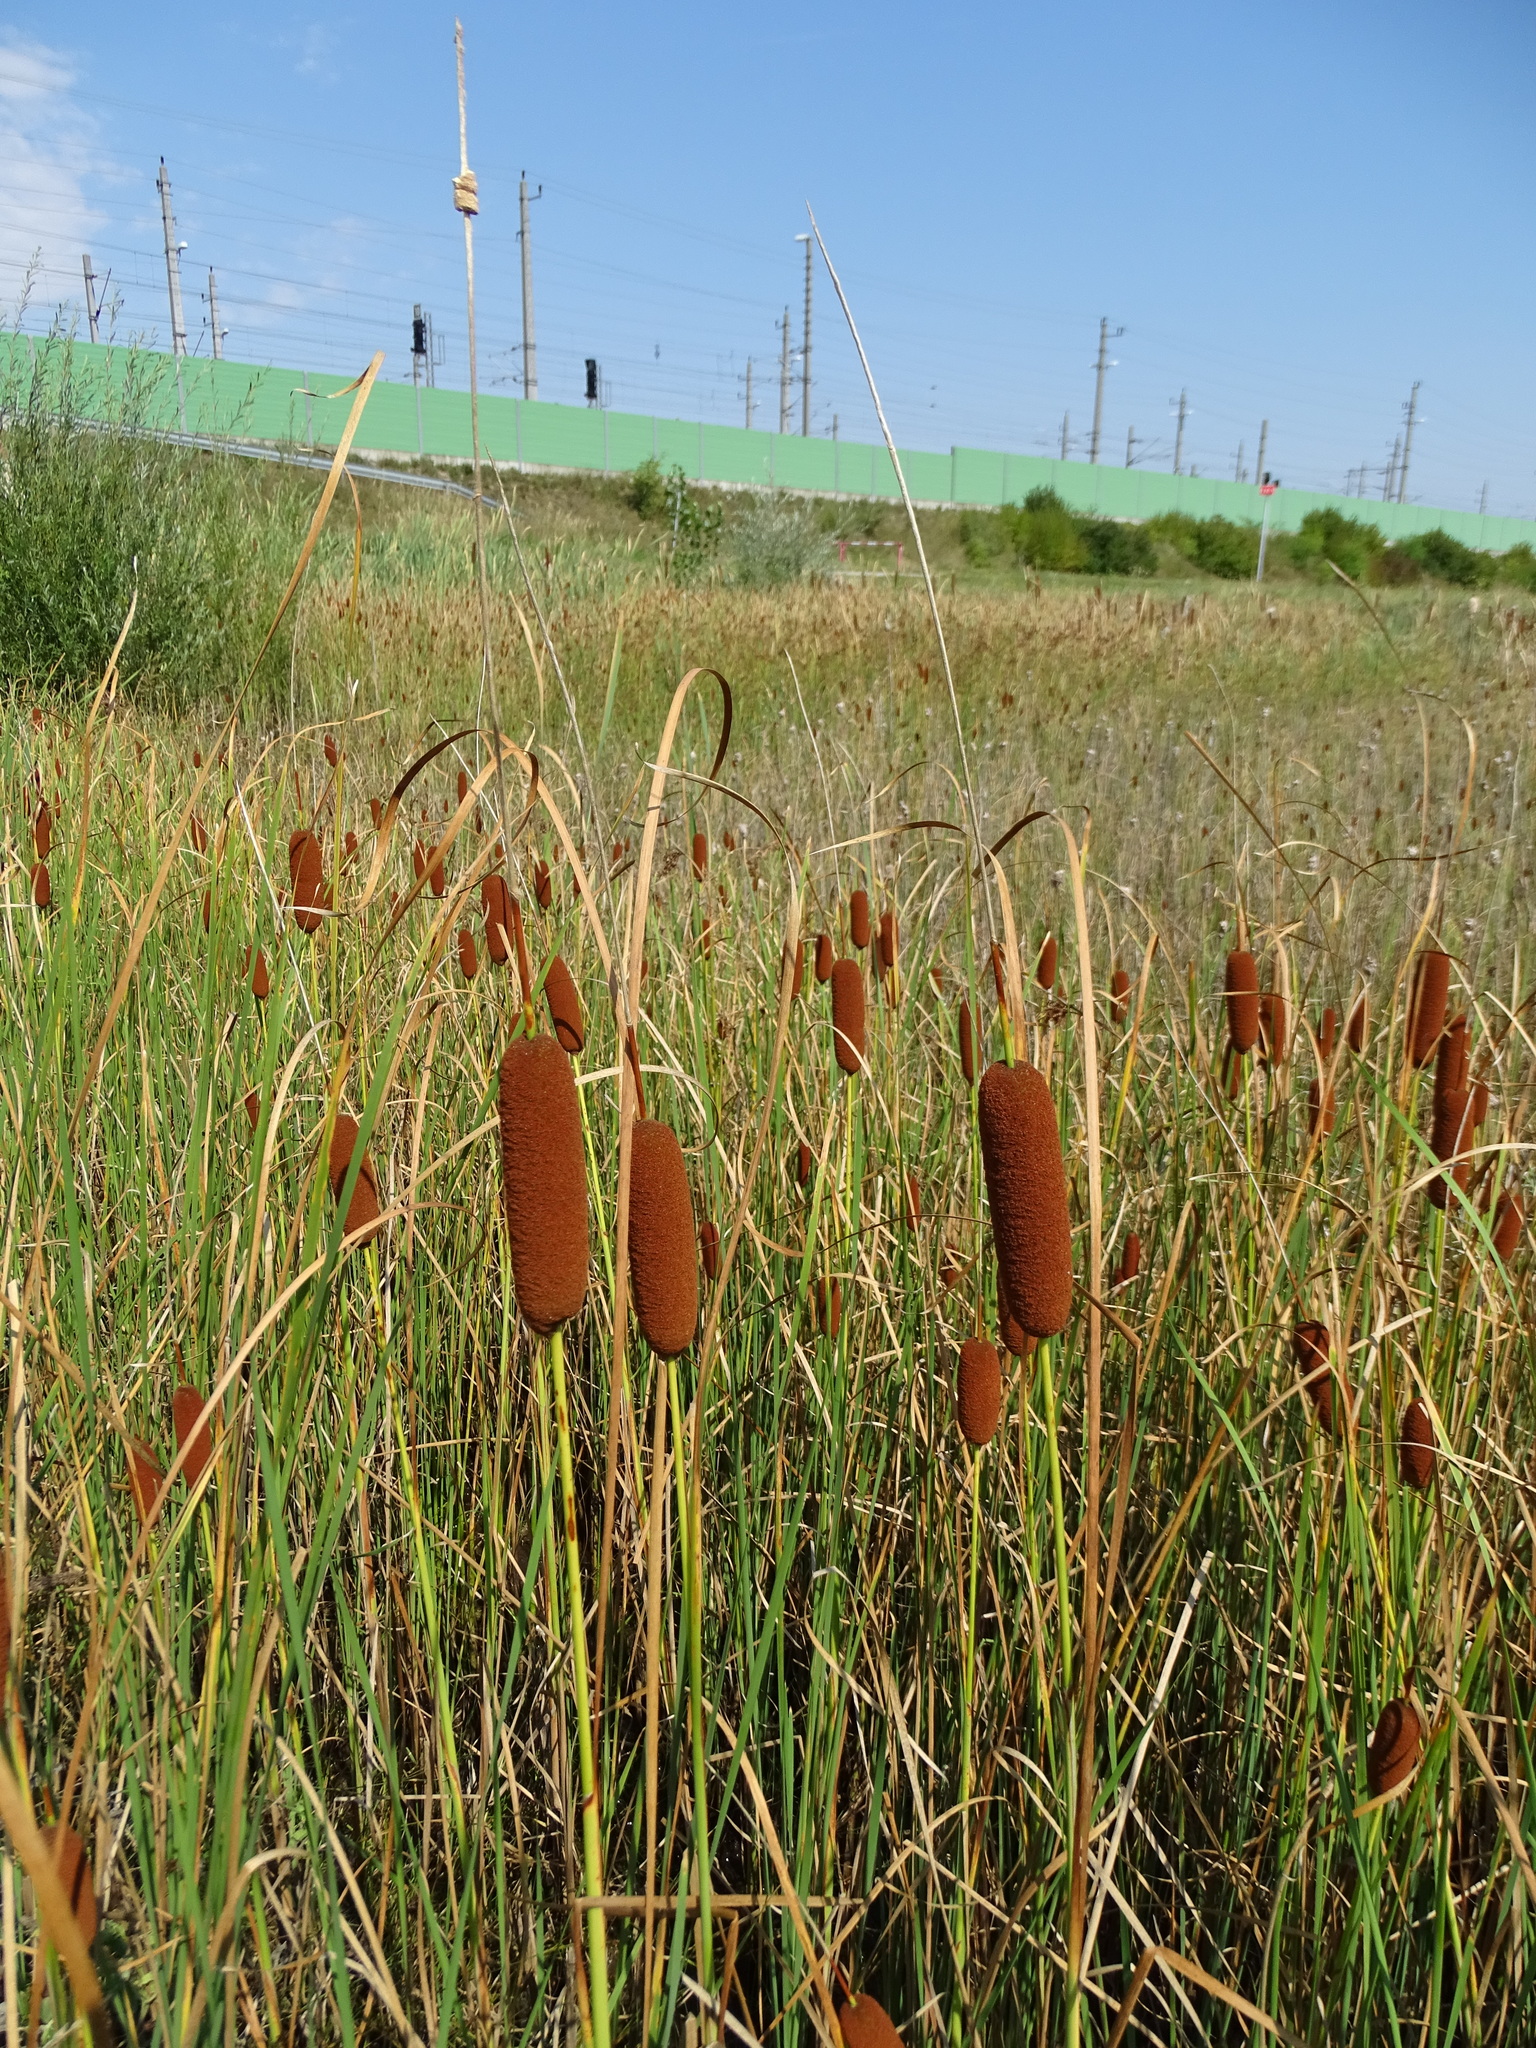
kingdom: Plantae
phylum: Tracheophyta
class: Liliopsida
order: Poales
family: Typhaceae
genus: Typha
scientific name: Typha laxmannii
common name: Laxman’s bulrush
